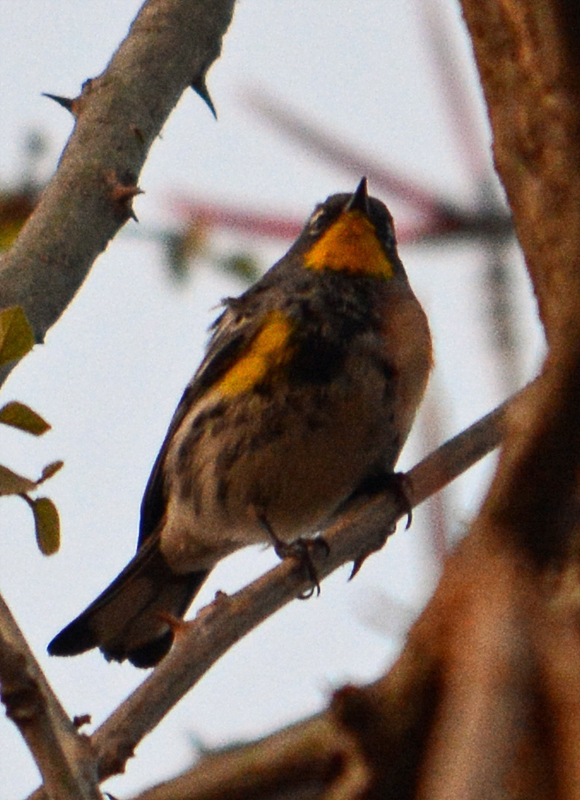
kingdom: Animalia
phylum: Chordata
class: Aves
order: Passeriformes
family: Parulidae
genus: Setophaga
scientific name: Setophaga auduboni
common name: Audubon's warbler
